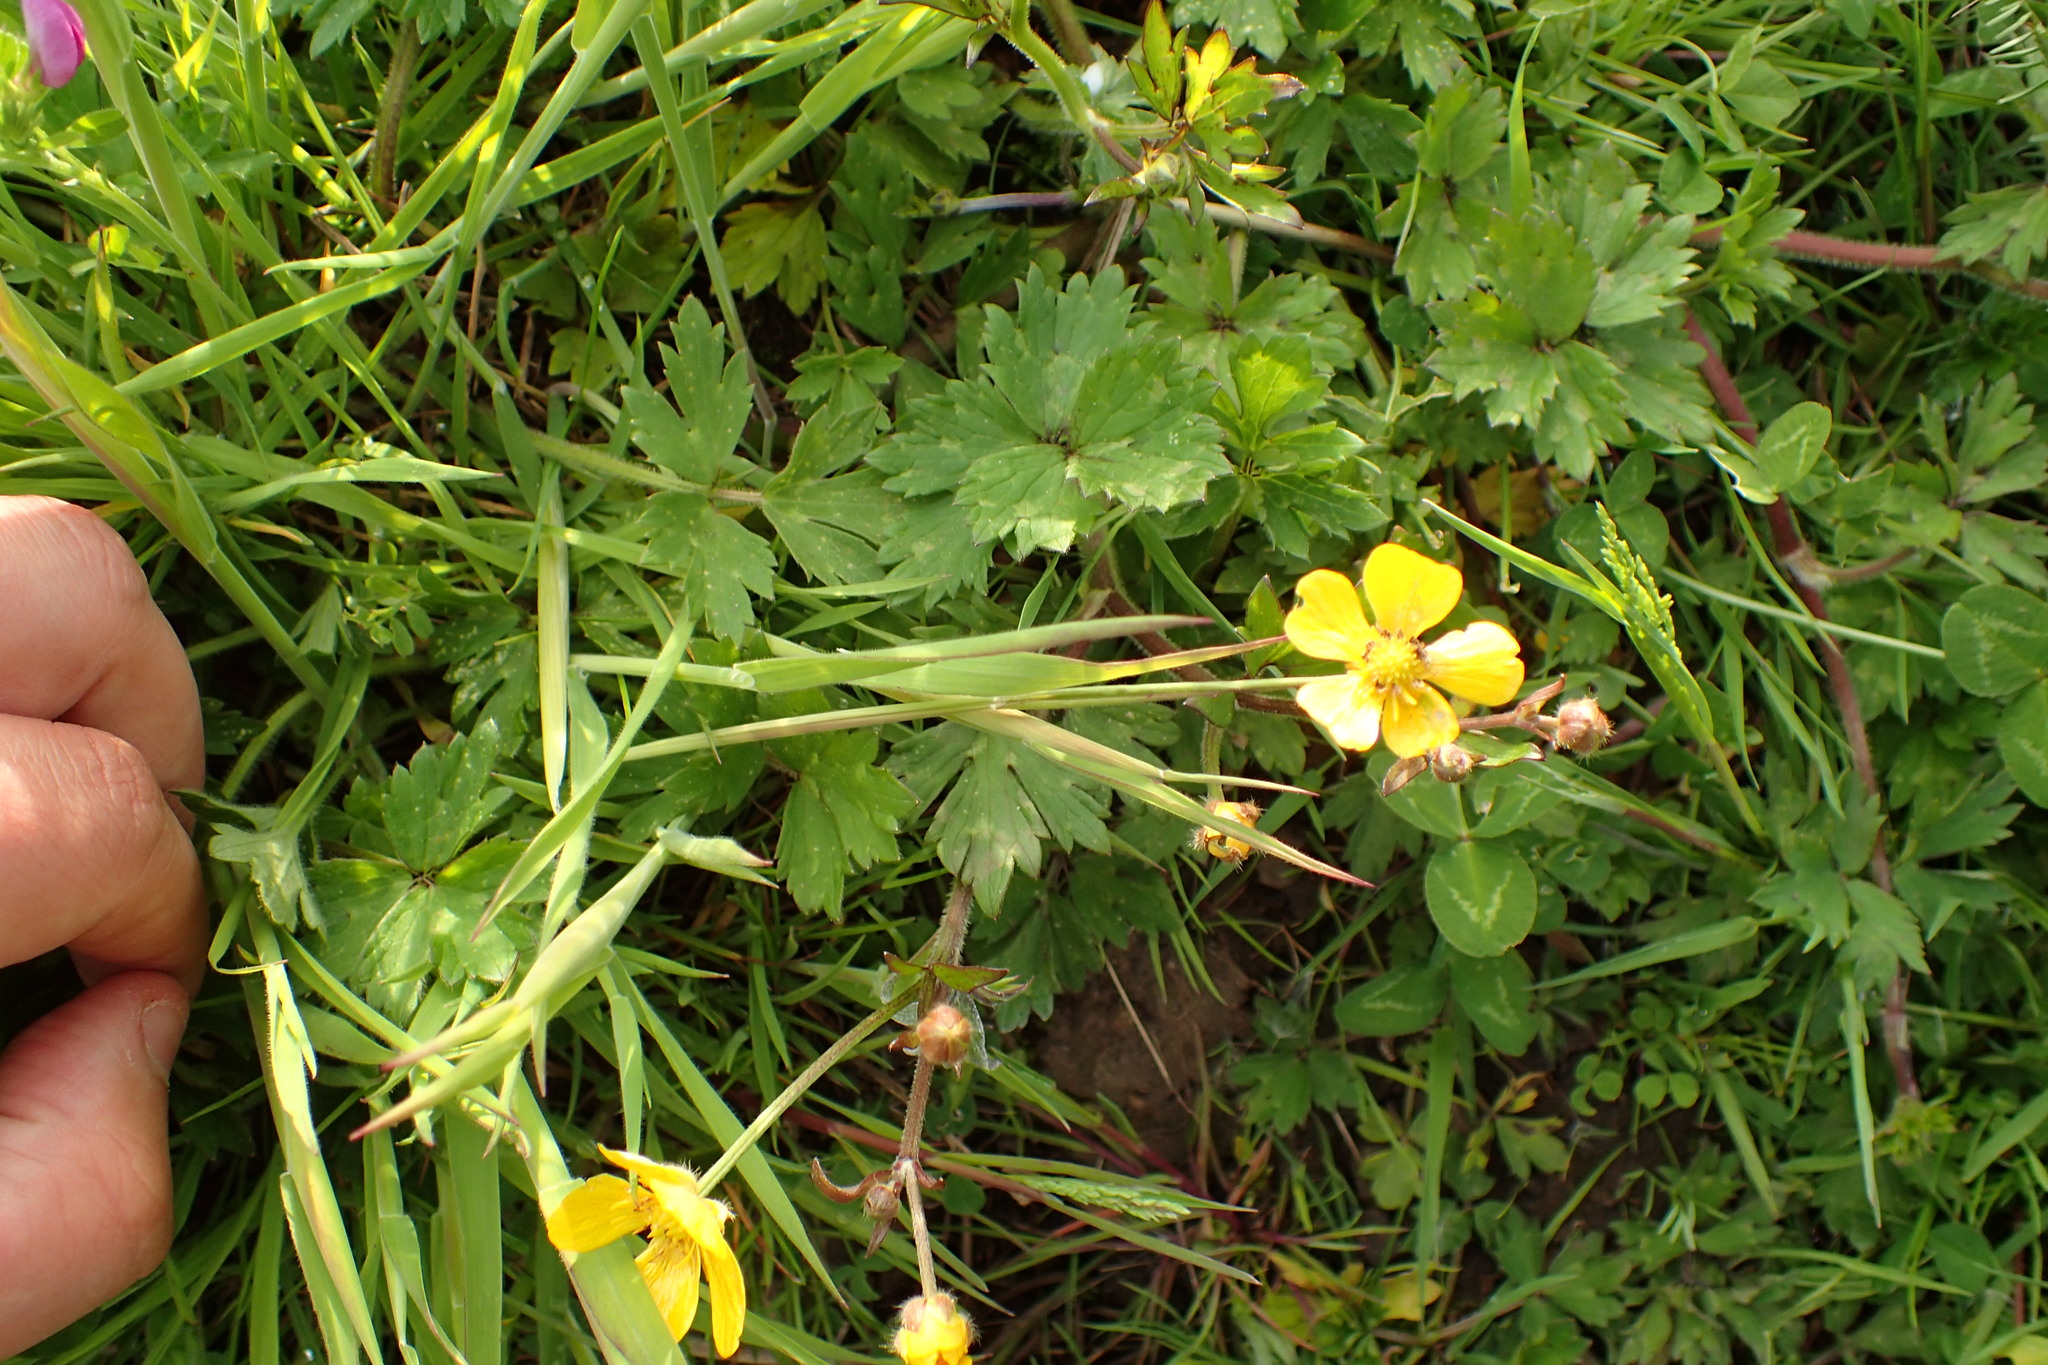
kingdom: Plantae
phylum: Tracheophyta
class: Magnoliopsida
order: Ranunculales
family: Ranunculaceae
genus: Ranunculus
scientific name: Ranunculus repens
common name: Creeping buttercup
